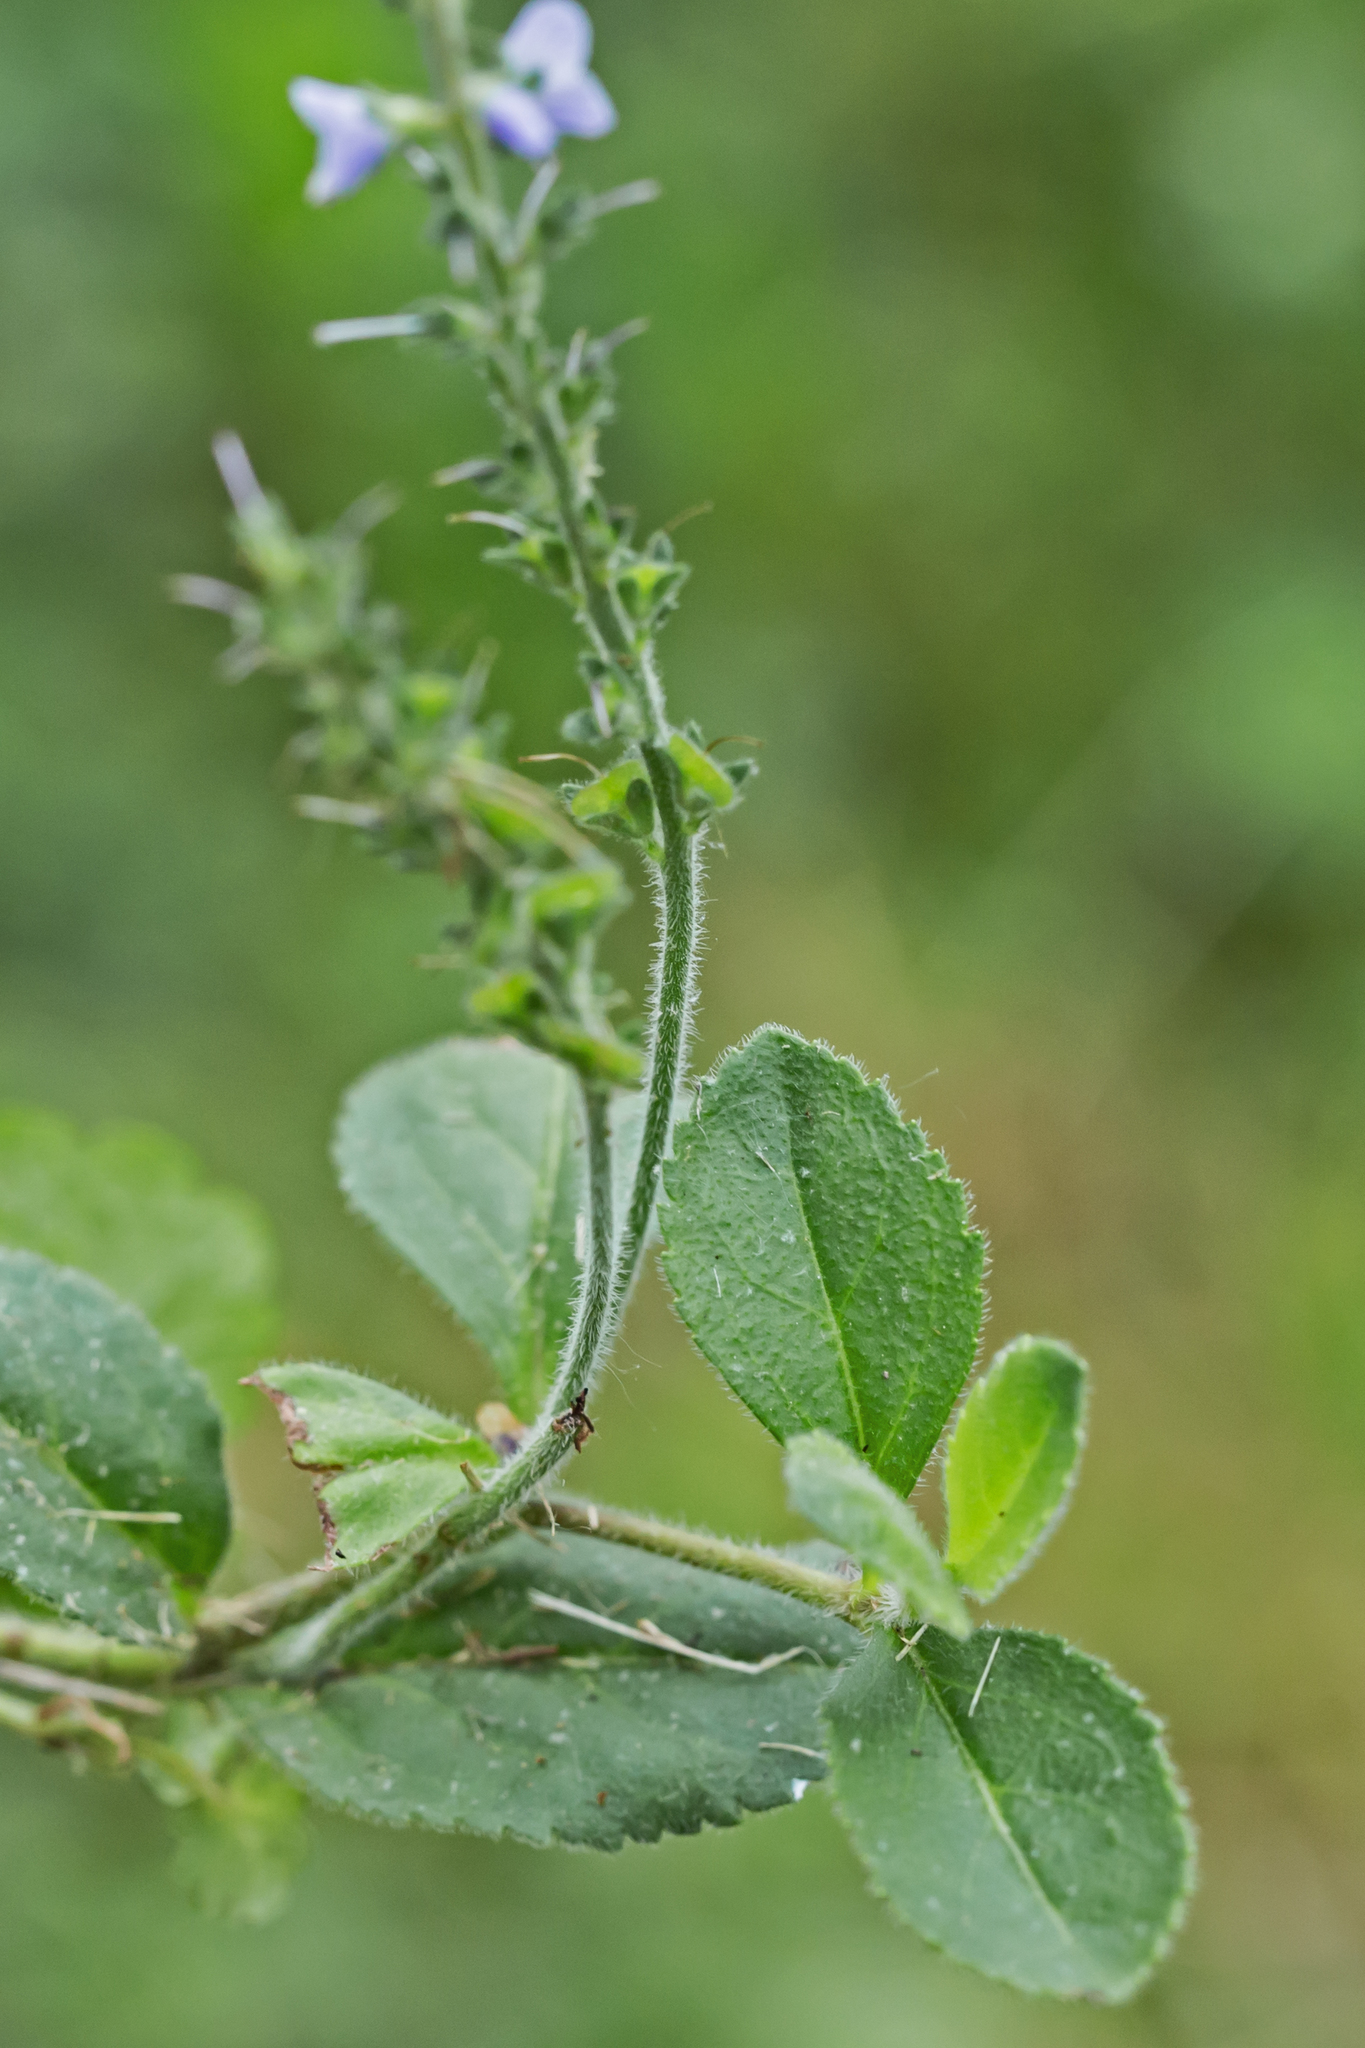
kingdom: Plantae
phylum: Tracheophyta
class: Magnoliopsida
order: Lamiales
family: Plantaginaceae
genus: Veronica
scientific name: Veronica officinalis
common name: Common speedwell
